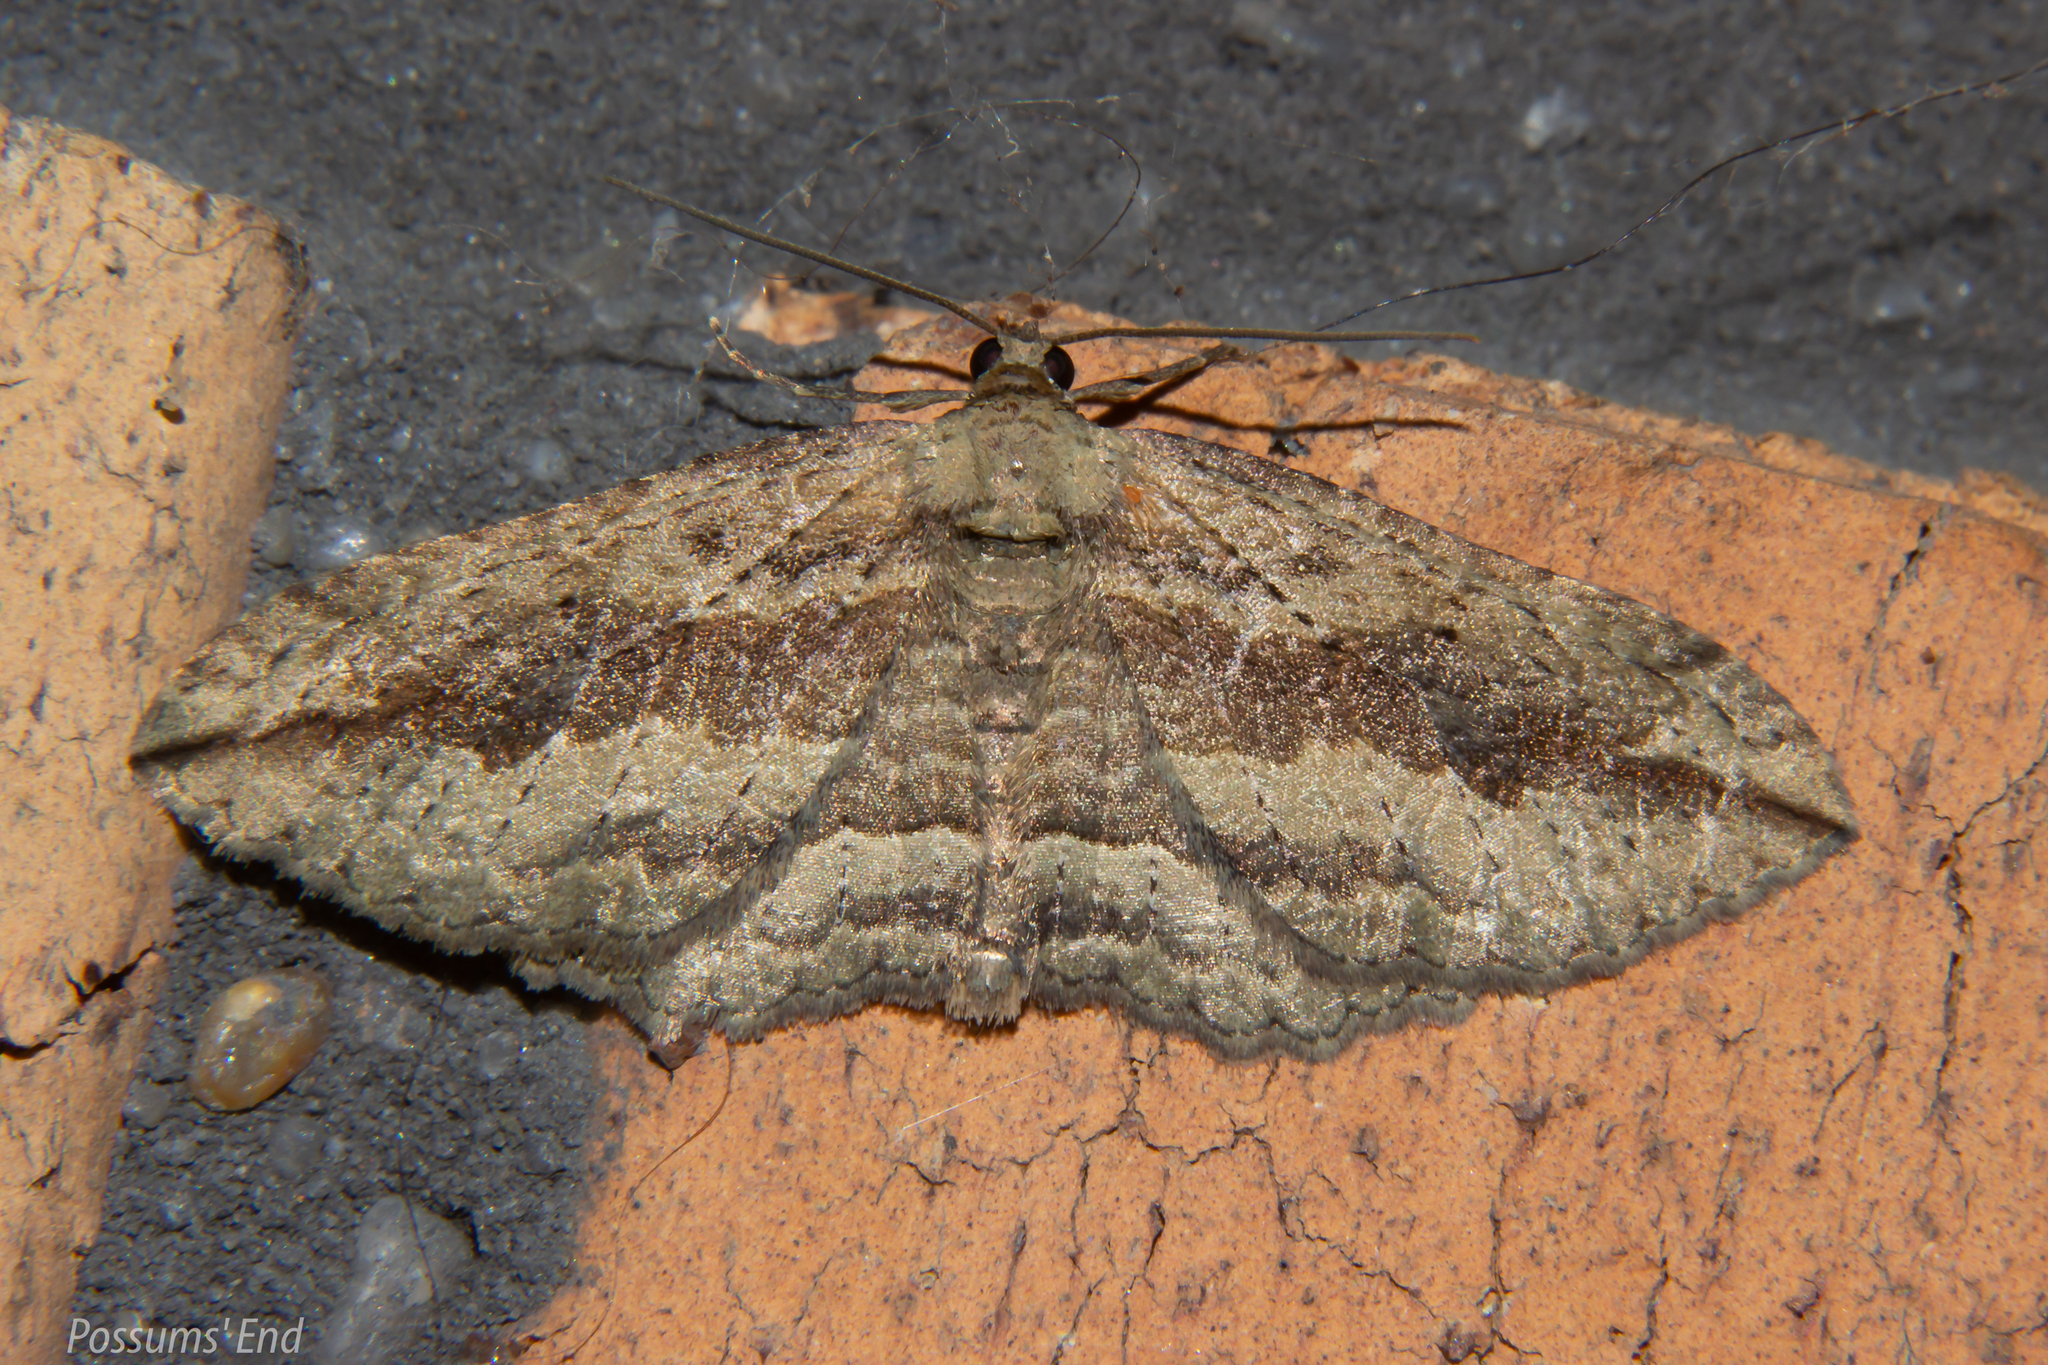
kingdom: Animalia
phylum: Arthropoda
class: Insecta
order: Lepidoptera
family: Geometridae
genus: Austrocidaria
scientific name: Austrocidaria gobiata
